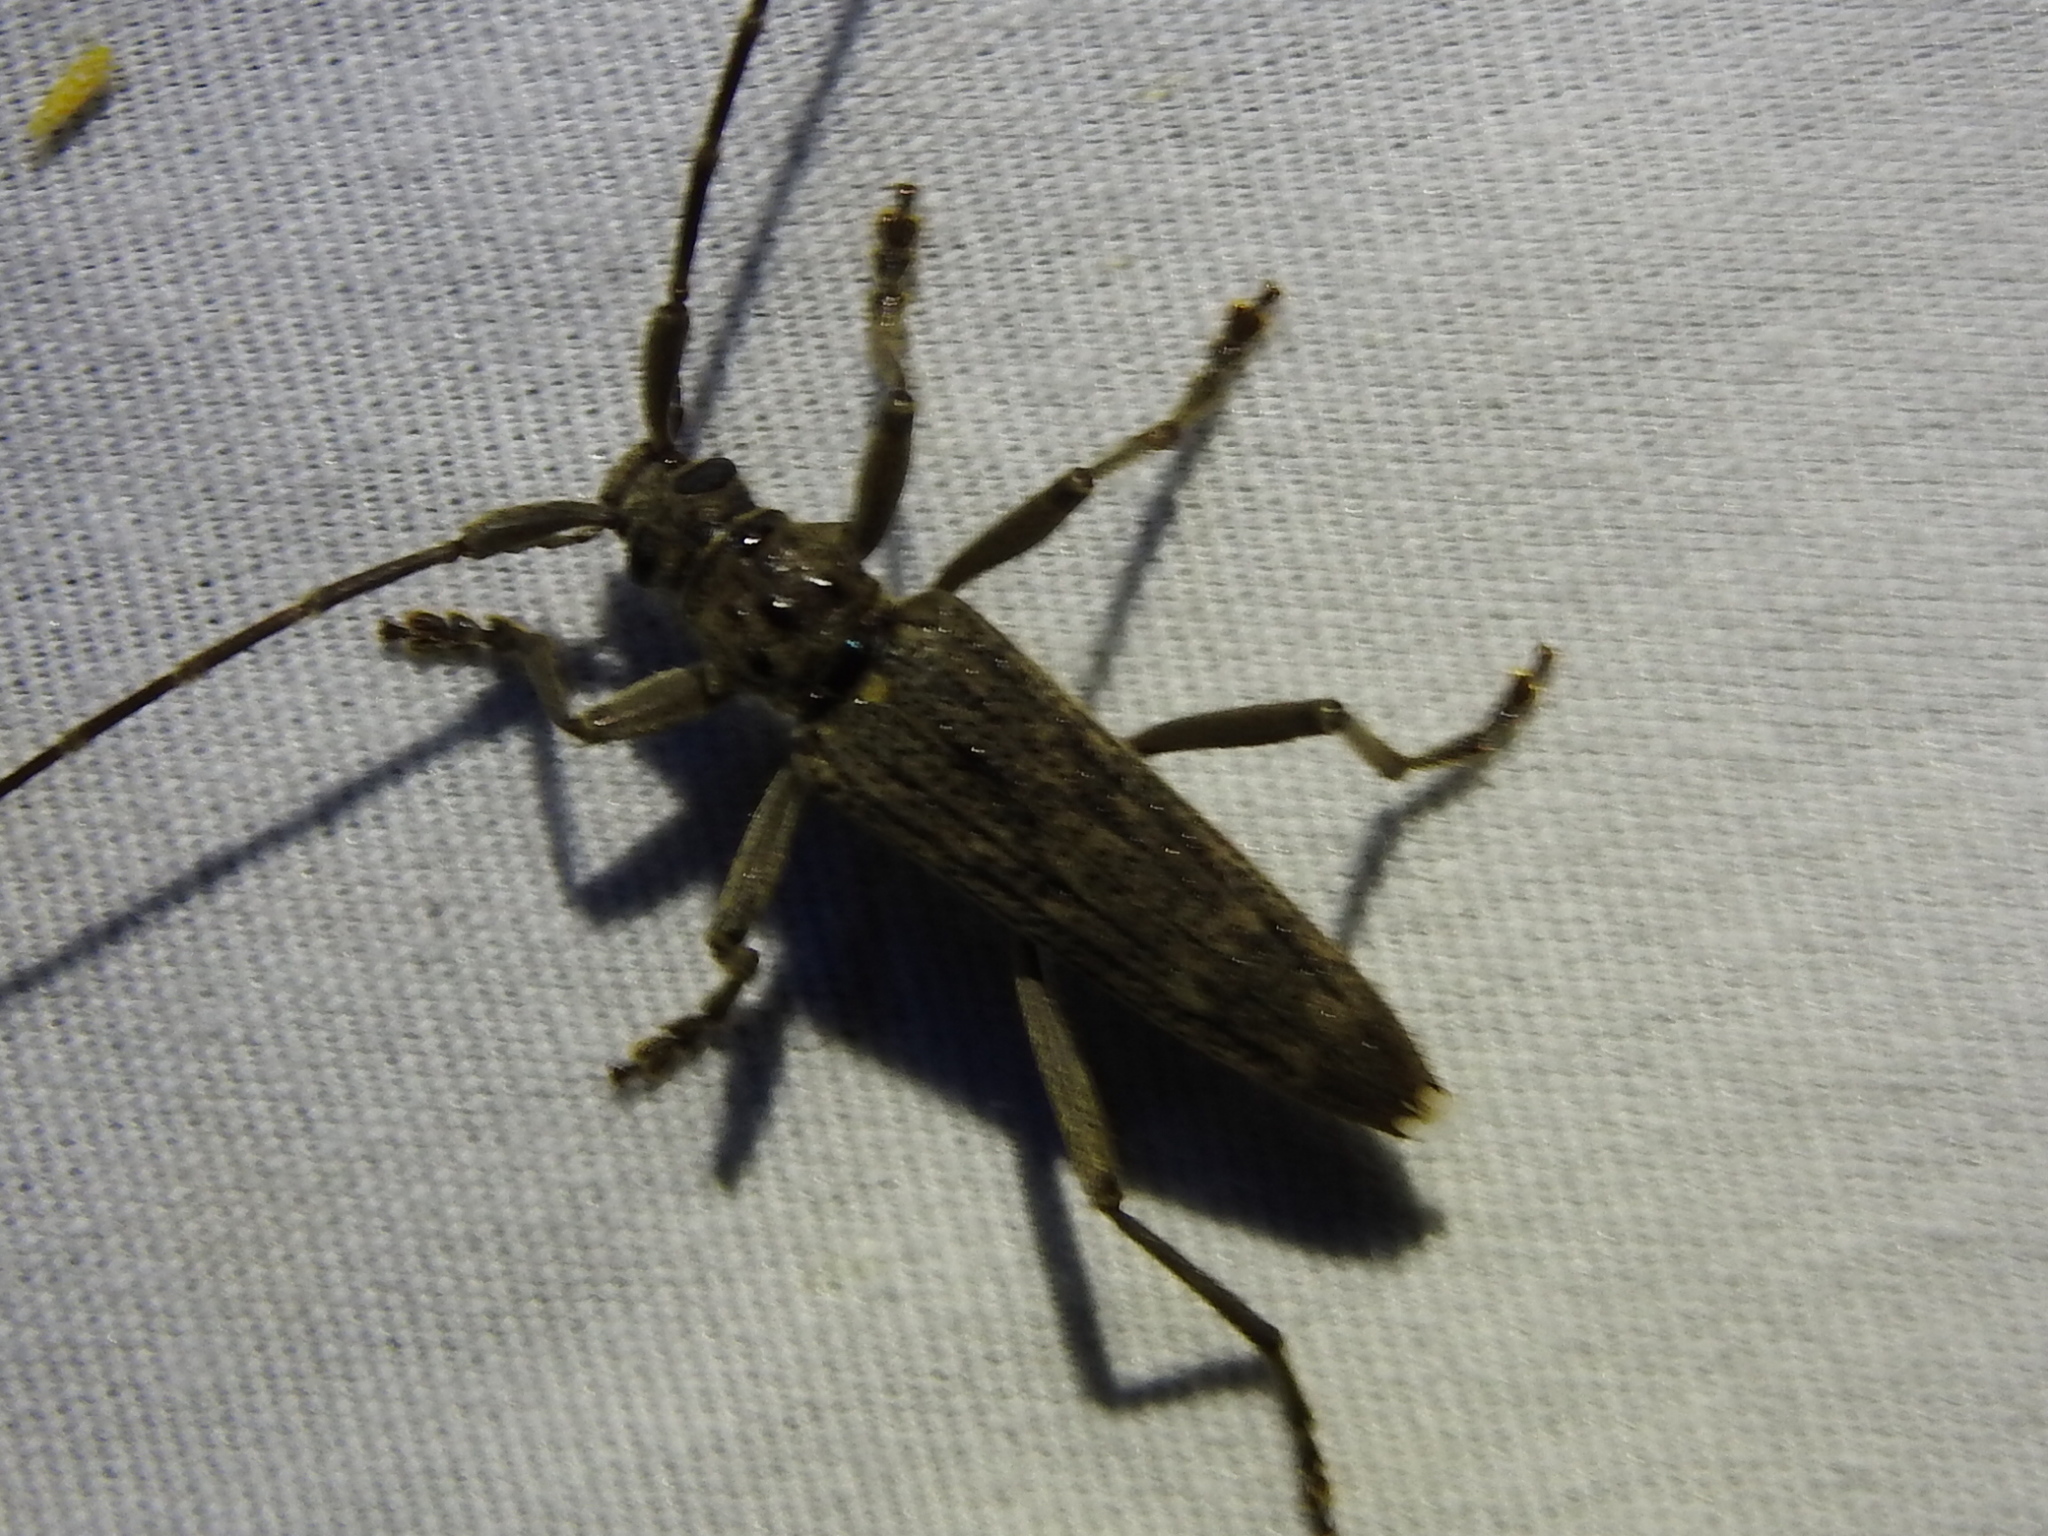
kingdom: Animalia
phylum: Arthropoda
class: Insecta
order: Coleoptera
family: Cerambycidae
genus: Elytrimitatrix
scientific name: Elytrimitatrix undata
